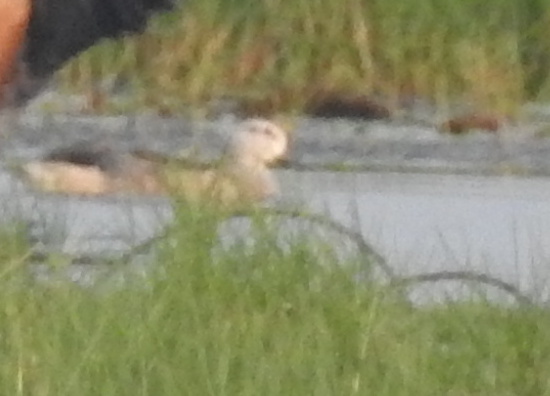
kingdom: Animalia
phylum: Chordata
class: Aves
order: Anseriformes
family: Anatidae
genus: Nettapus
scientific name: Nettapus coromandelianus
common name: Cotton pygmy-goose
